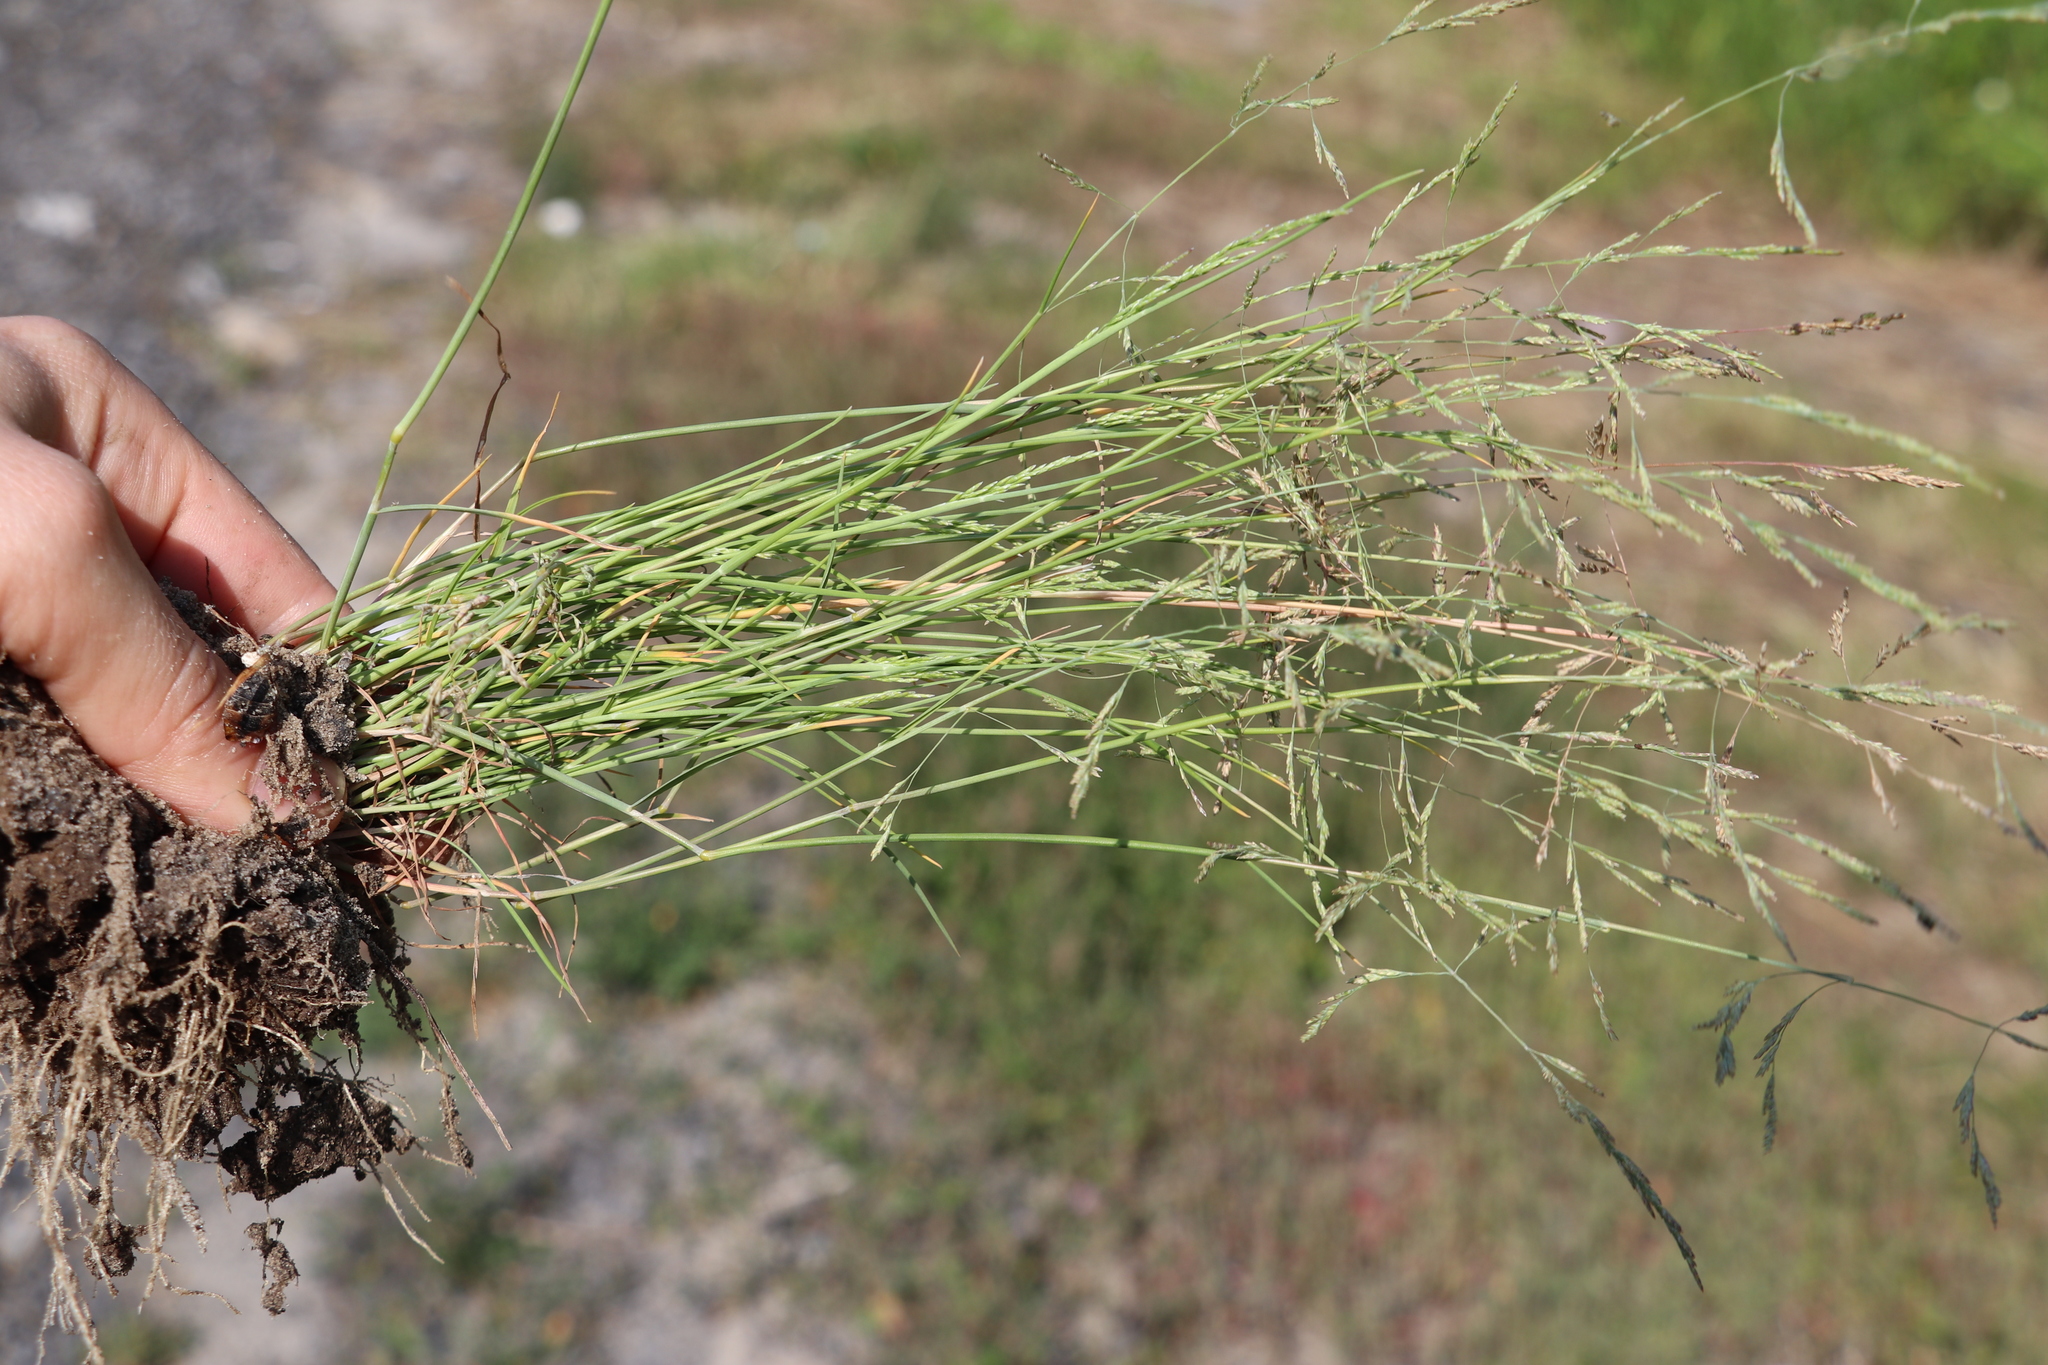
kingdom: Plantae
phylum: Tracheophyta
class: Liliopsida
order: Poales
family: Poaceae
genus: Puccinellia
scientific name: Puccinellia hauptiana
